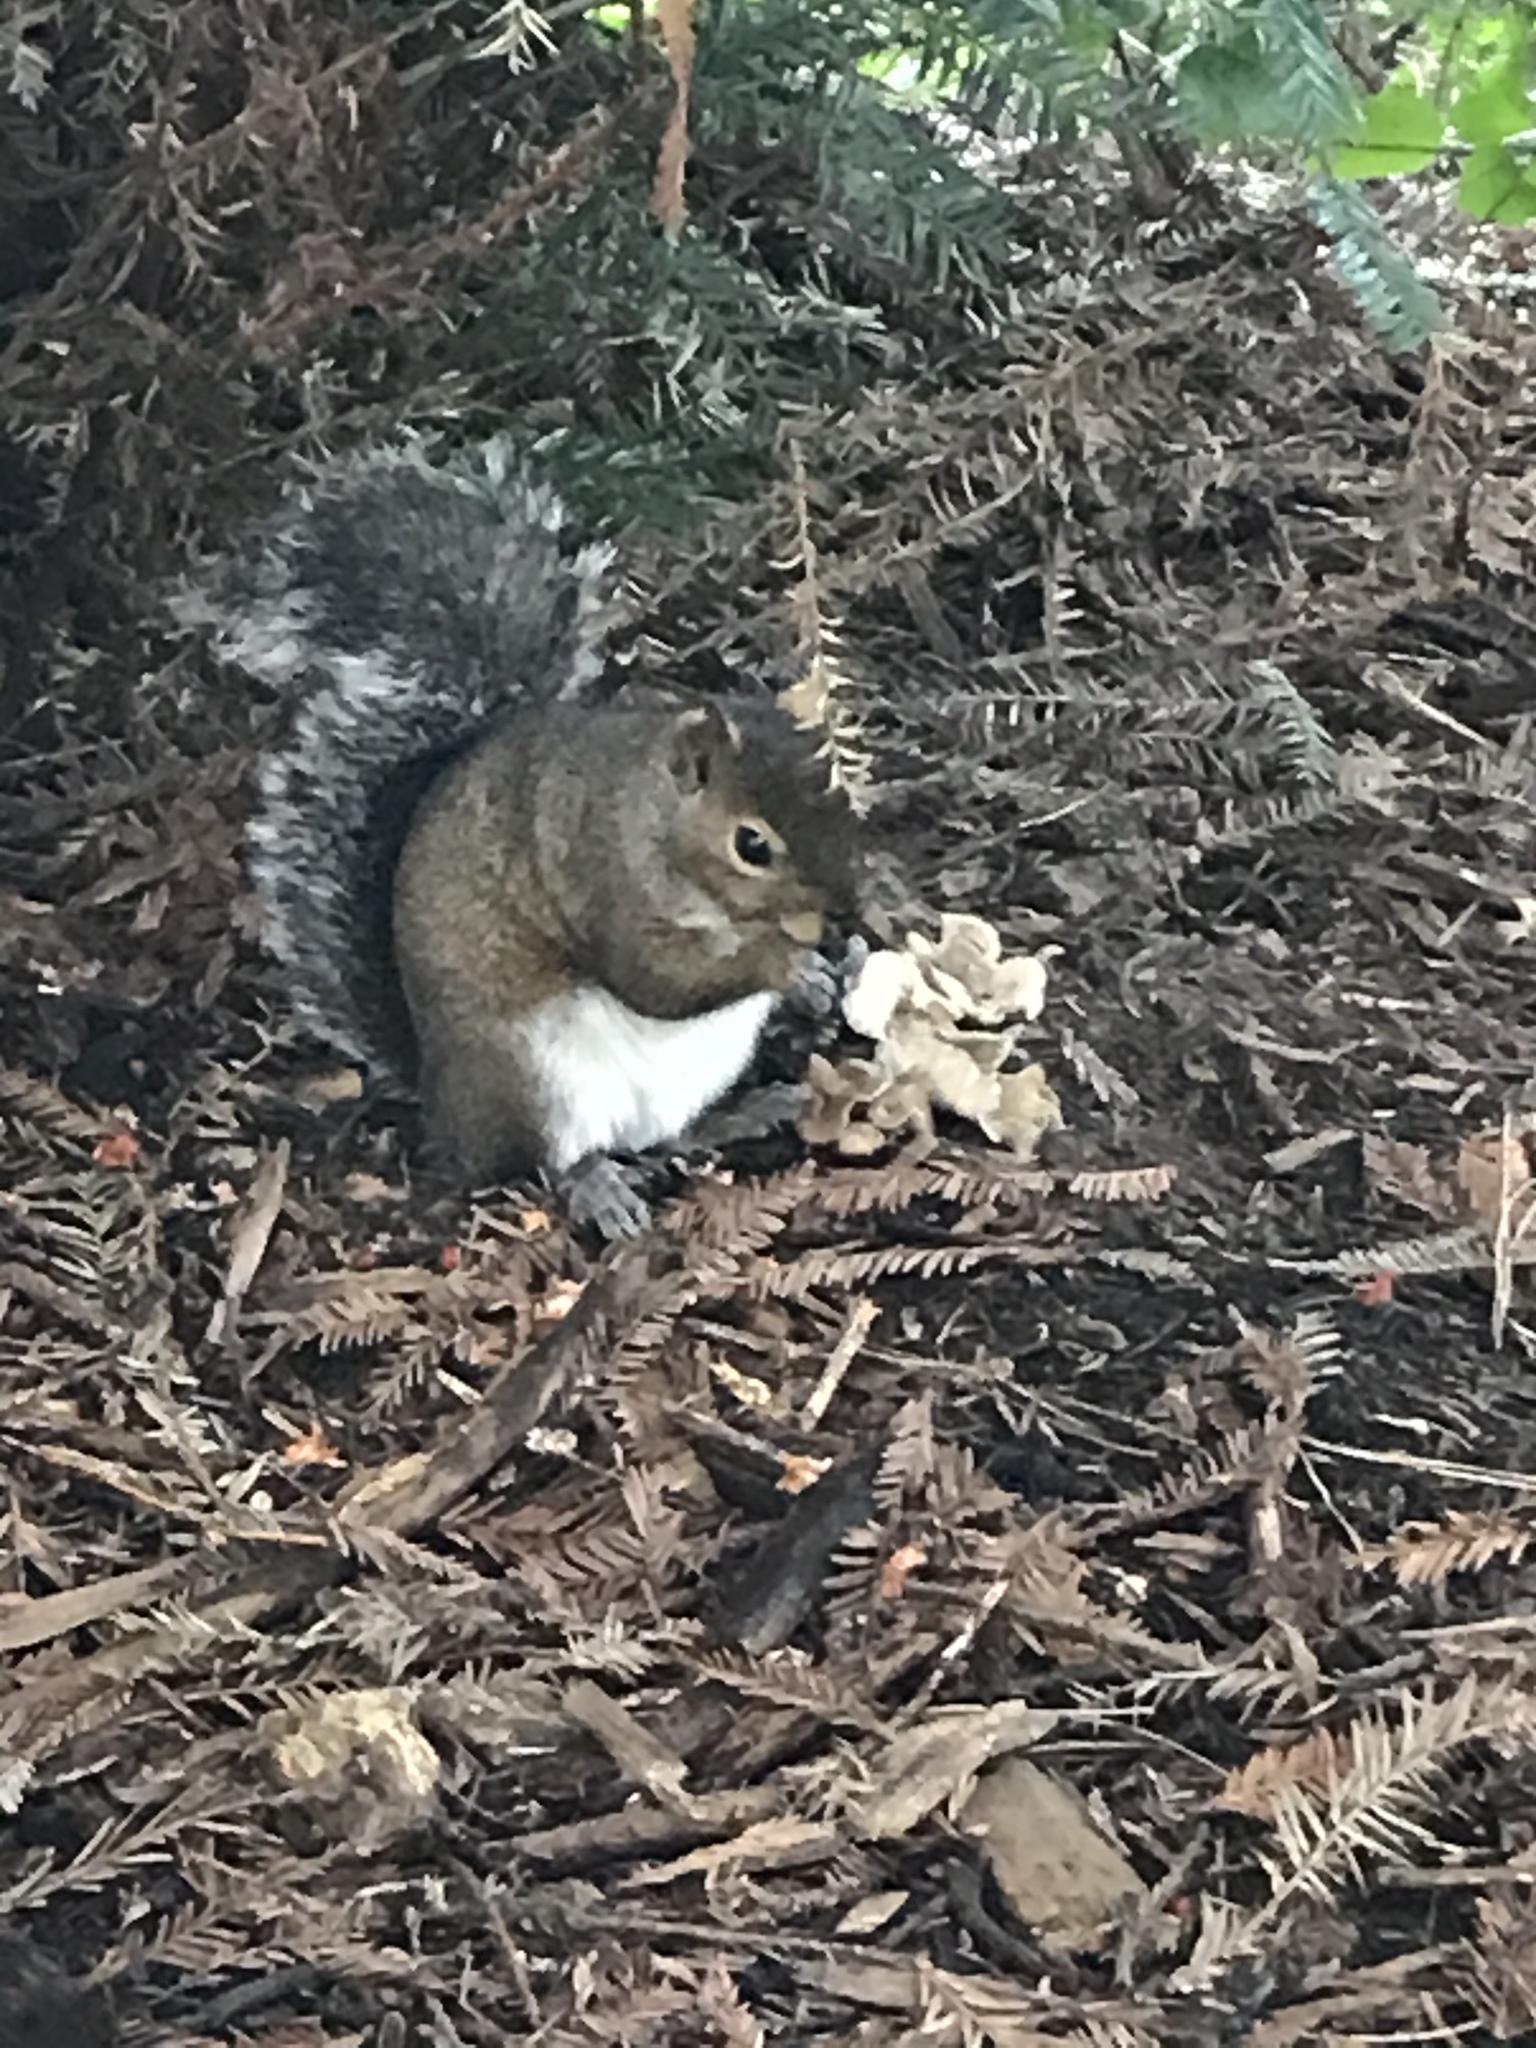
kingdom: Animalia
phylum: Chordata
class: Mammalia
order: Rodentia
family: Sciuridae
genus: Sciurus
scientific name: Sciurus carolinensis
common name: Eastern gray squirrel
